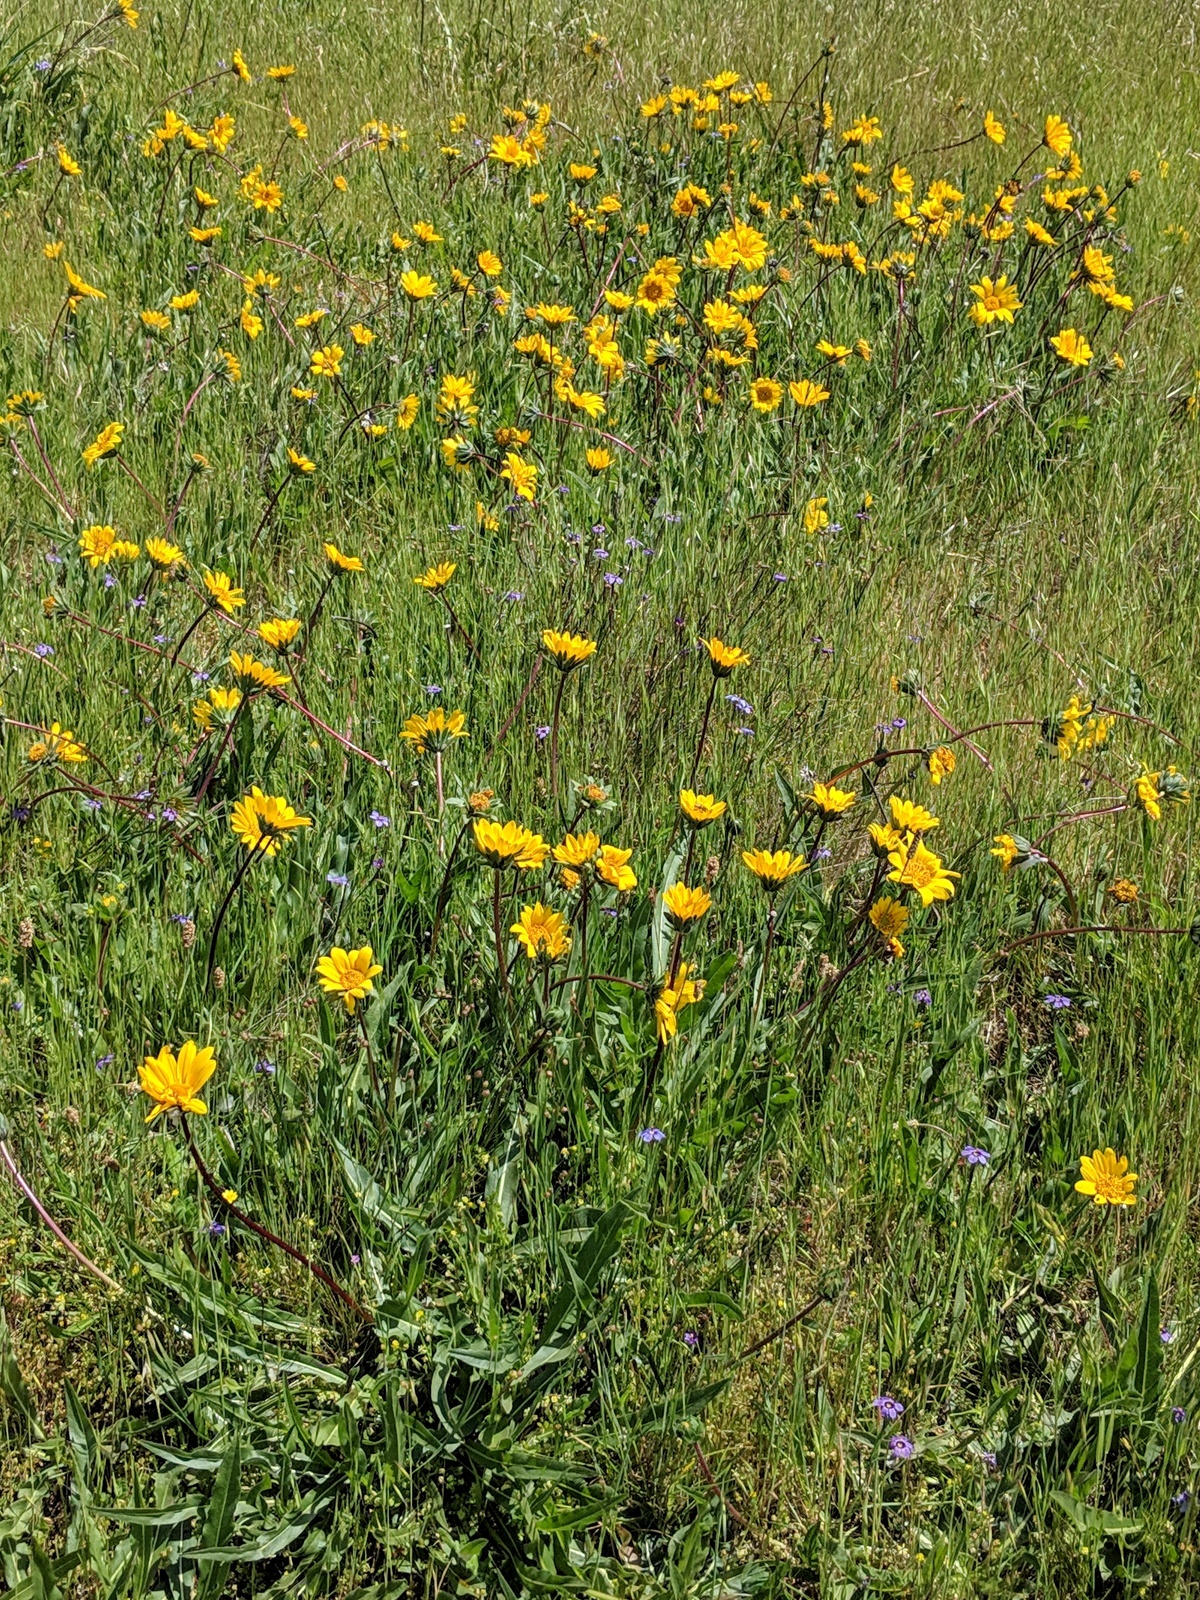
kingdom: Plantae
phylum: Tracheophyta
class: Magnoliopsida
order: Asterales
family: Asteraceae
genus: Wyethia
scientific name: Wyethia angustifolia
